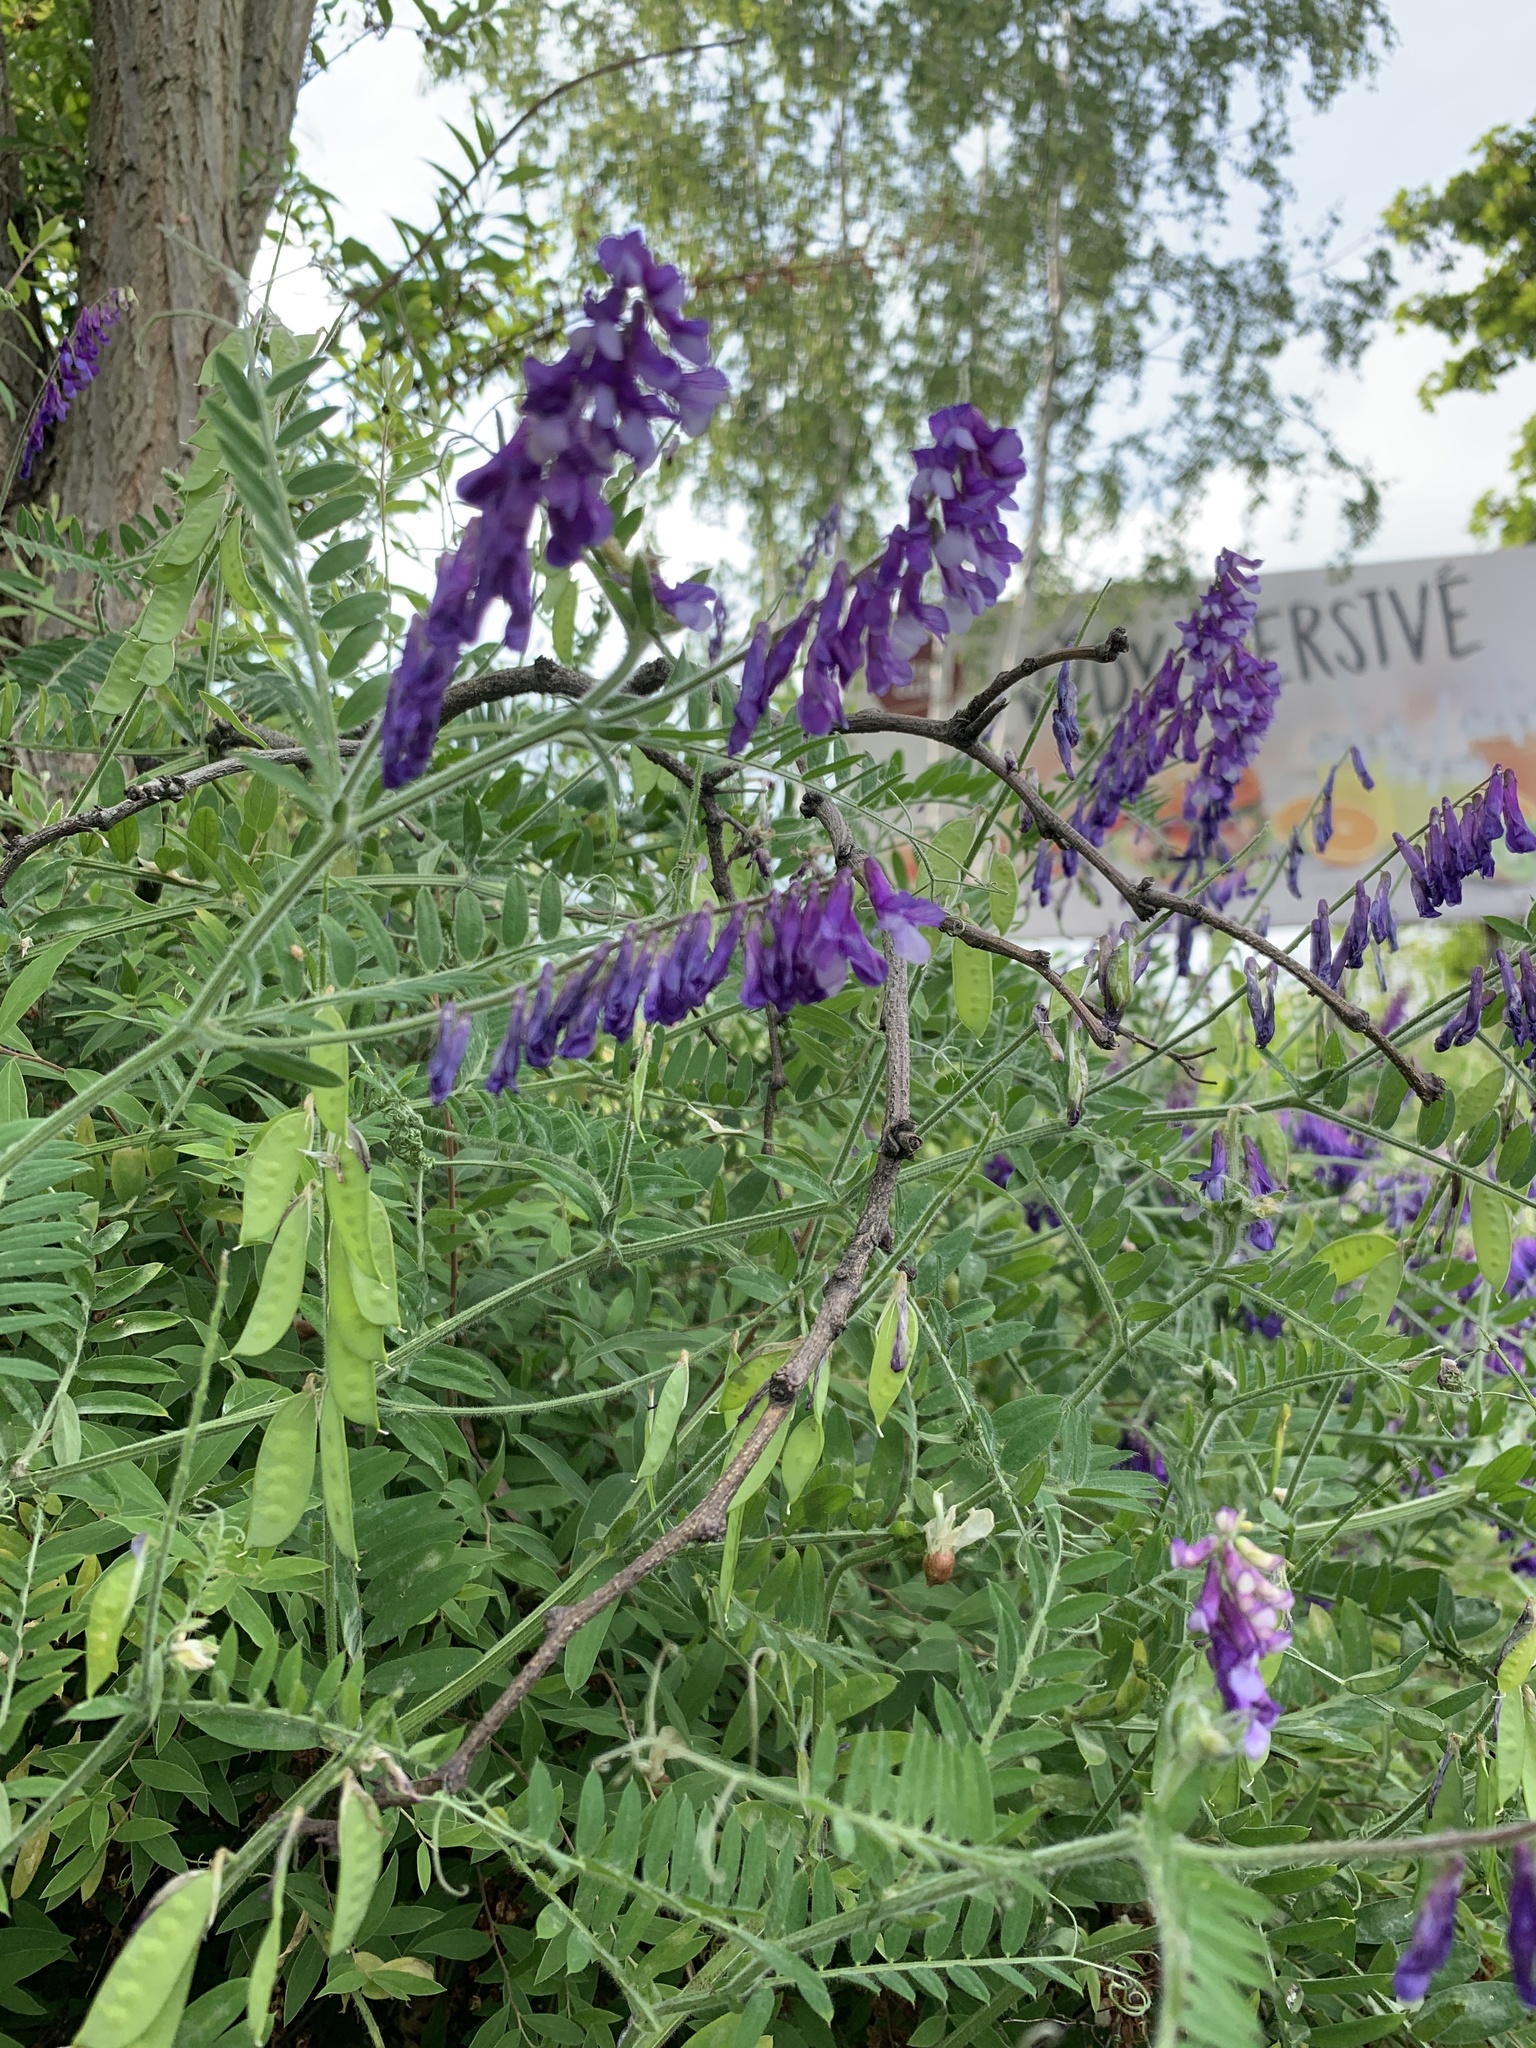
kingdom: Plantae
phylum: Tracheophyta
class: Magnoliopsida
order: Fabales
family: Fabaceae
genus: Vicia
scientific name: Vicia villosa
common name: Fodder vetch
